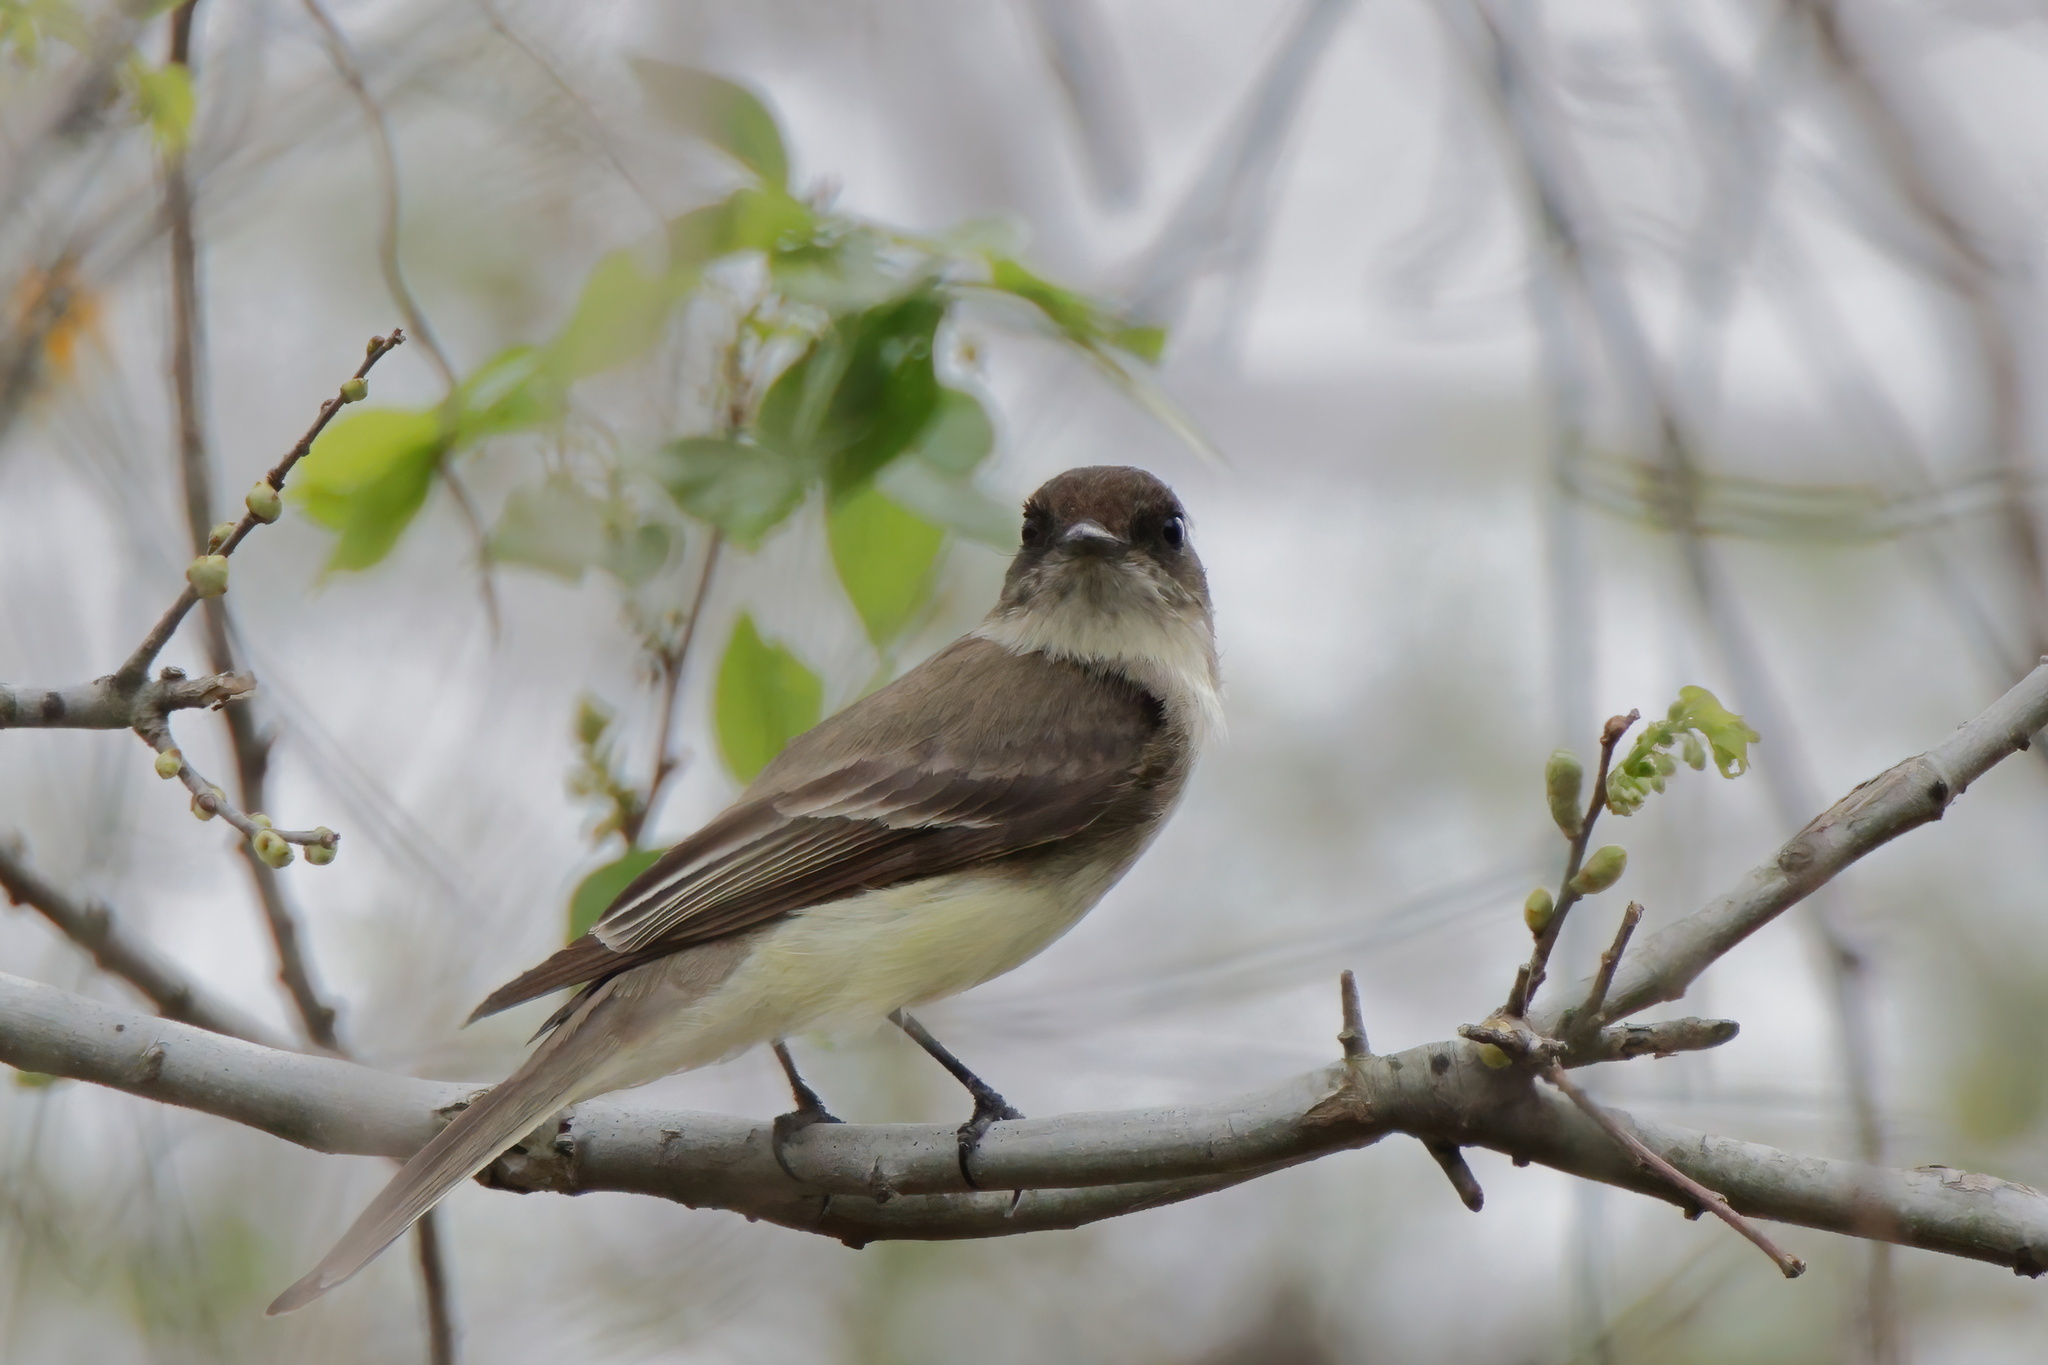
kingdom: Animalia
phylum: Chordata
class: Aves
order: Passeriformes
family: Tyrannidae
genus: Sayornis
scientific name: Sayornis phoebe
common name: Eastern phoebe
